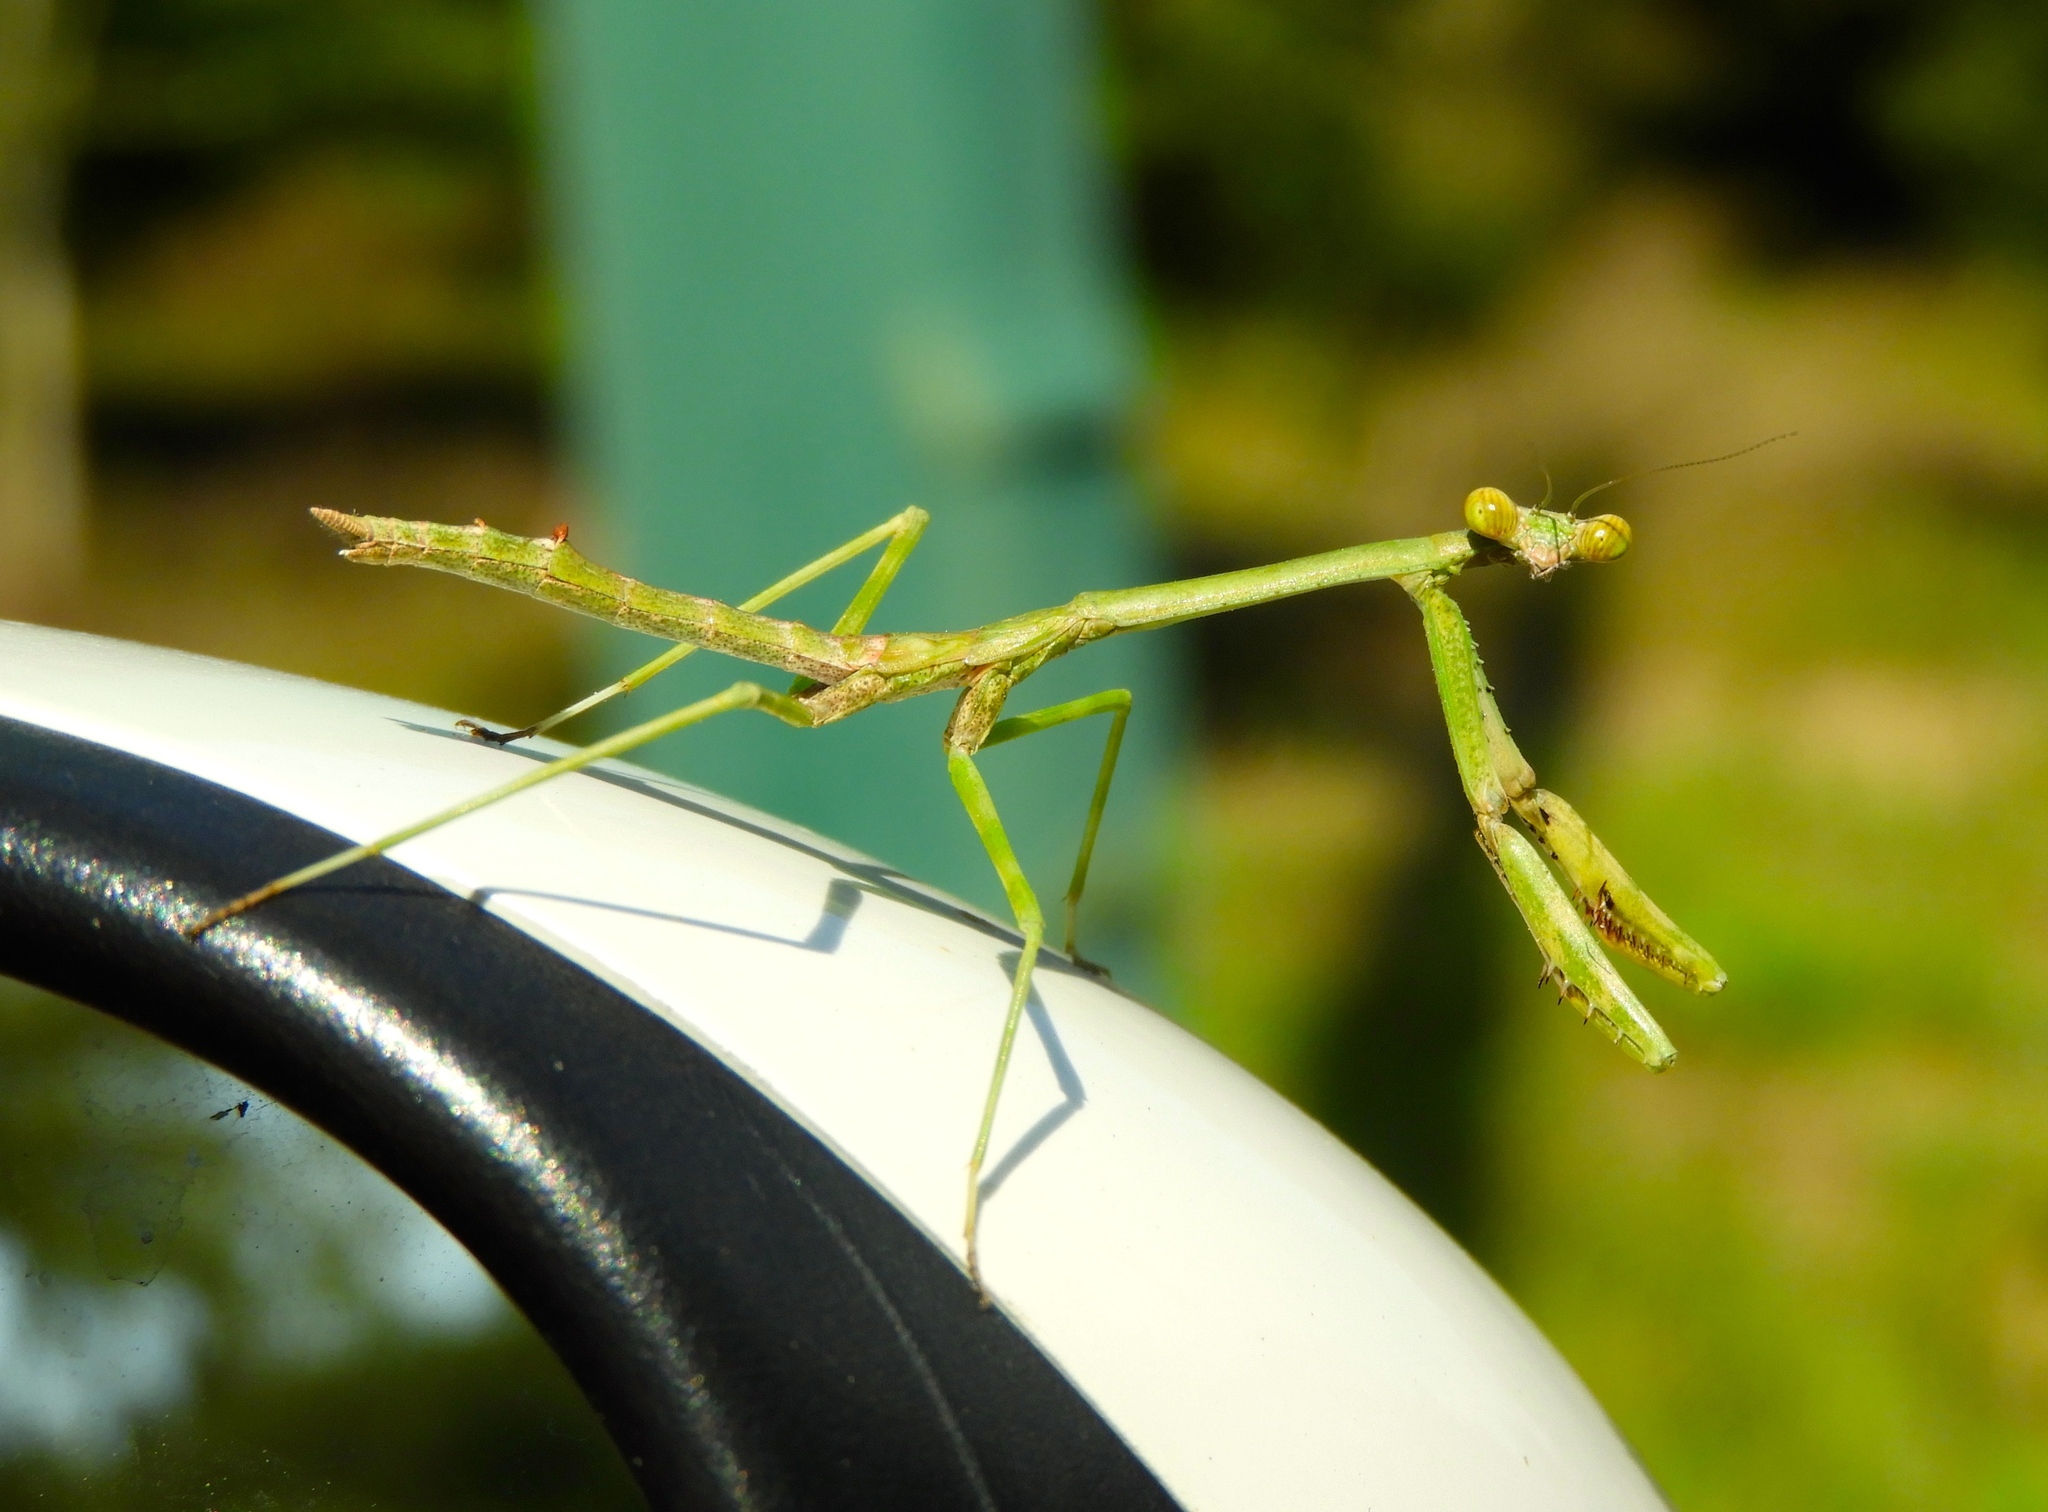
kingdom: Animalia
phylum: Arthropoda
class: Insecta
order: Mantodea
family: Mantidae
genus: Stagmomantis
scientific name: Stagmomantis carolina
